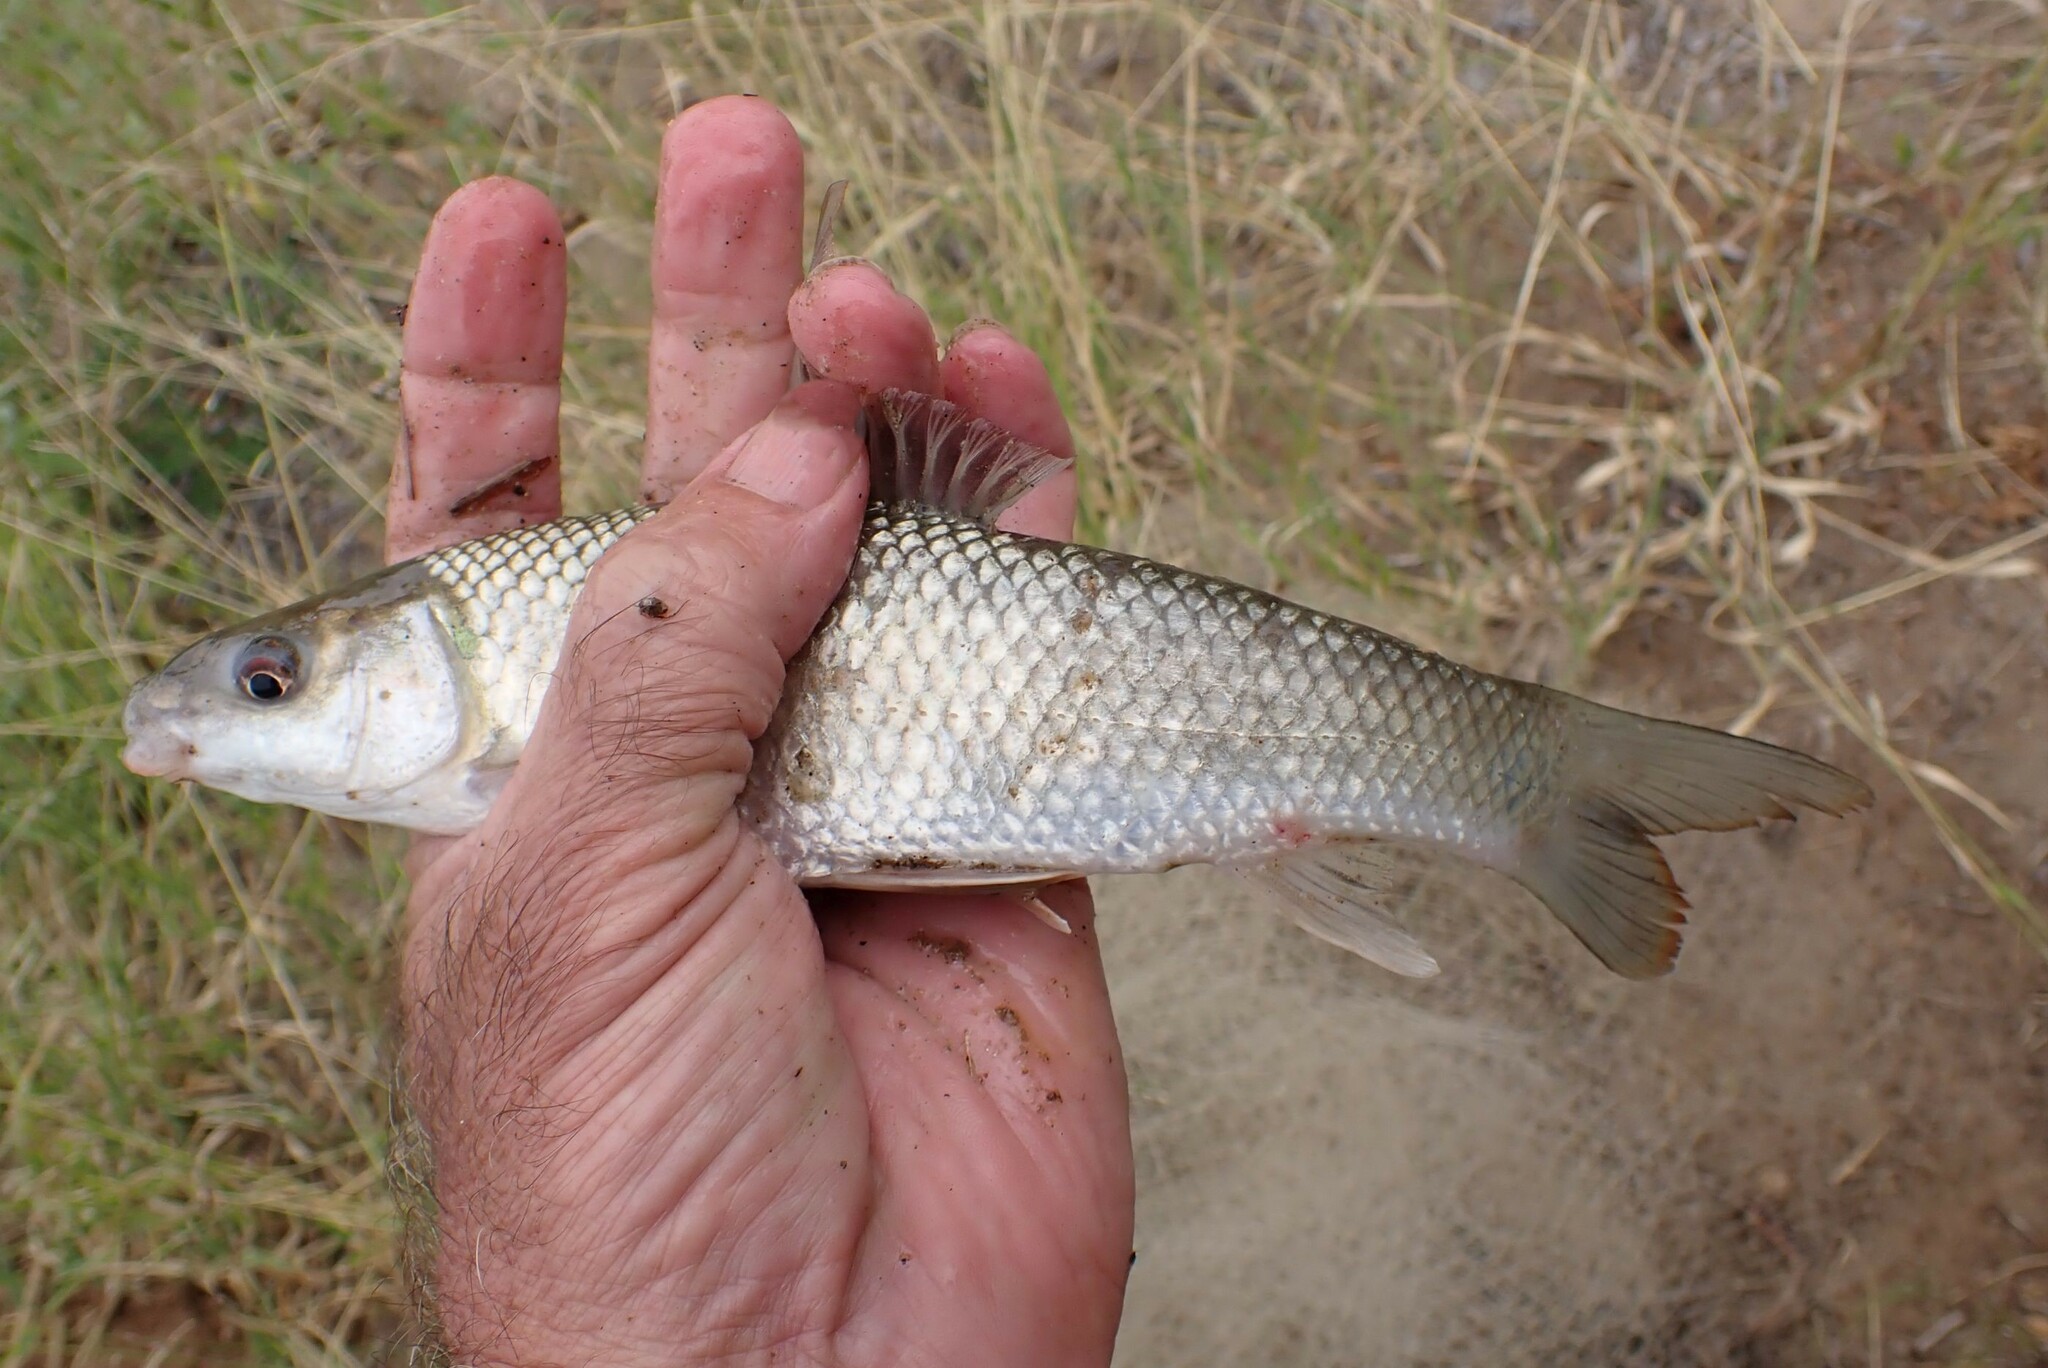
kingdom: Animalia
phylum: Chordata
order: Cypriniformes
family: Cyprinidae
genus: Labeo
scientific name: Labeo ruddi
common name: Silver labeo
